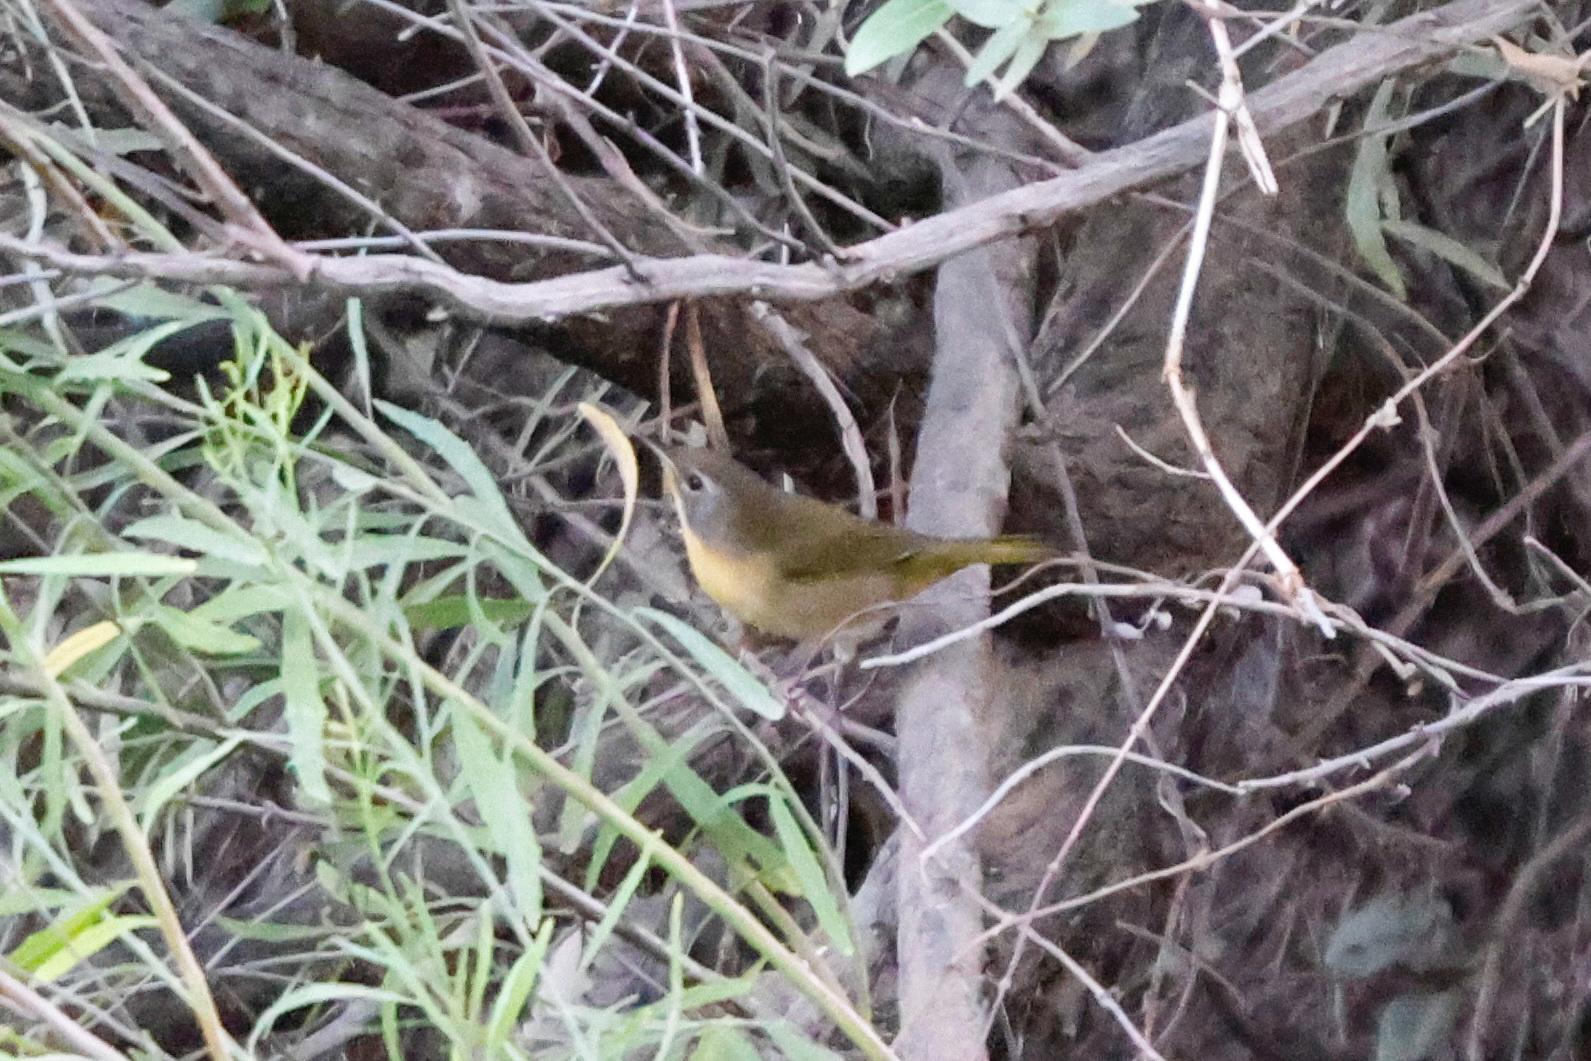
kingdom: Animalia
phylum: Chordata
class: Aves
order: Passeriformes
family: Parulidae
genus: Geothlypis
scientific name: Geothlypis trichas
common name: Common yellowthroat
